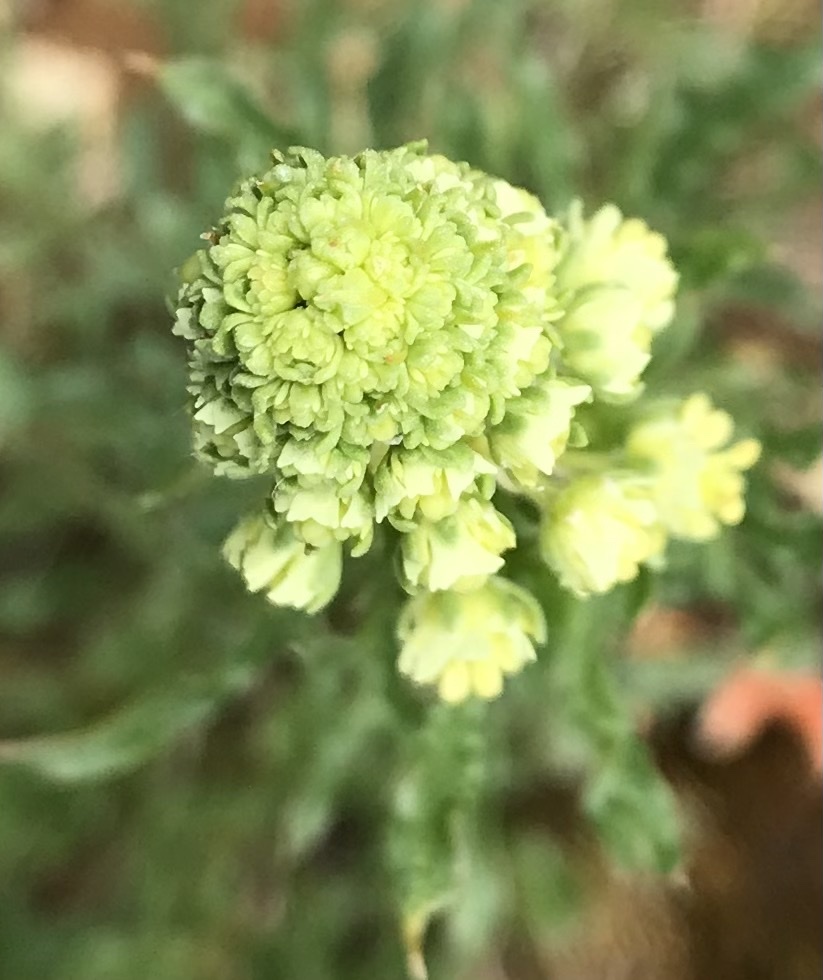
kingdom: Plantae
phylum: Tracheophyta
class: Magnoliopsida
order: Brassicales
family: Resedaceae
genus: Reseda
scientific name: Reseda lutea
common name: Wild mignonette
